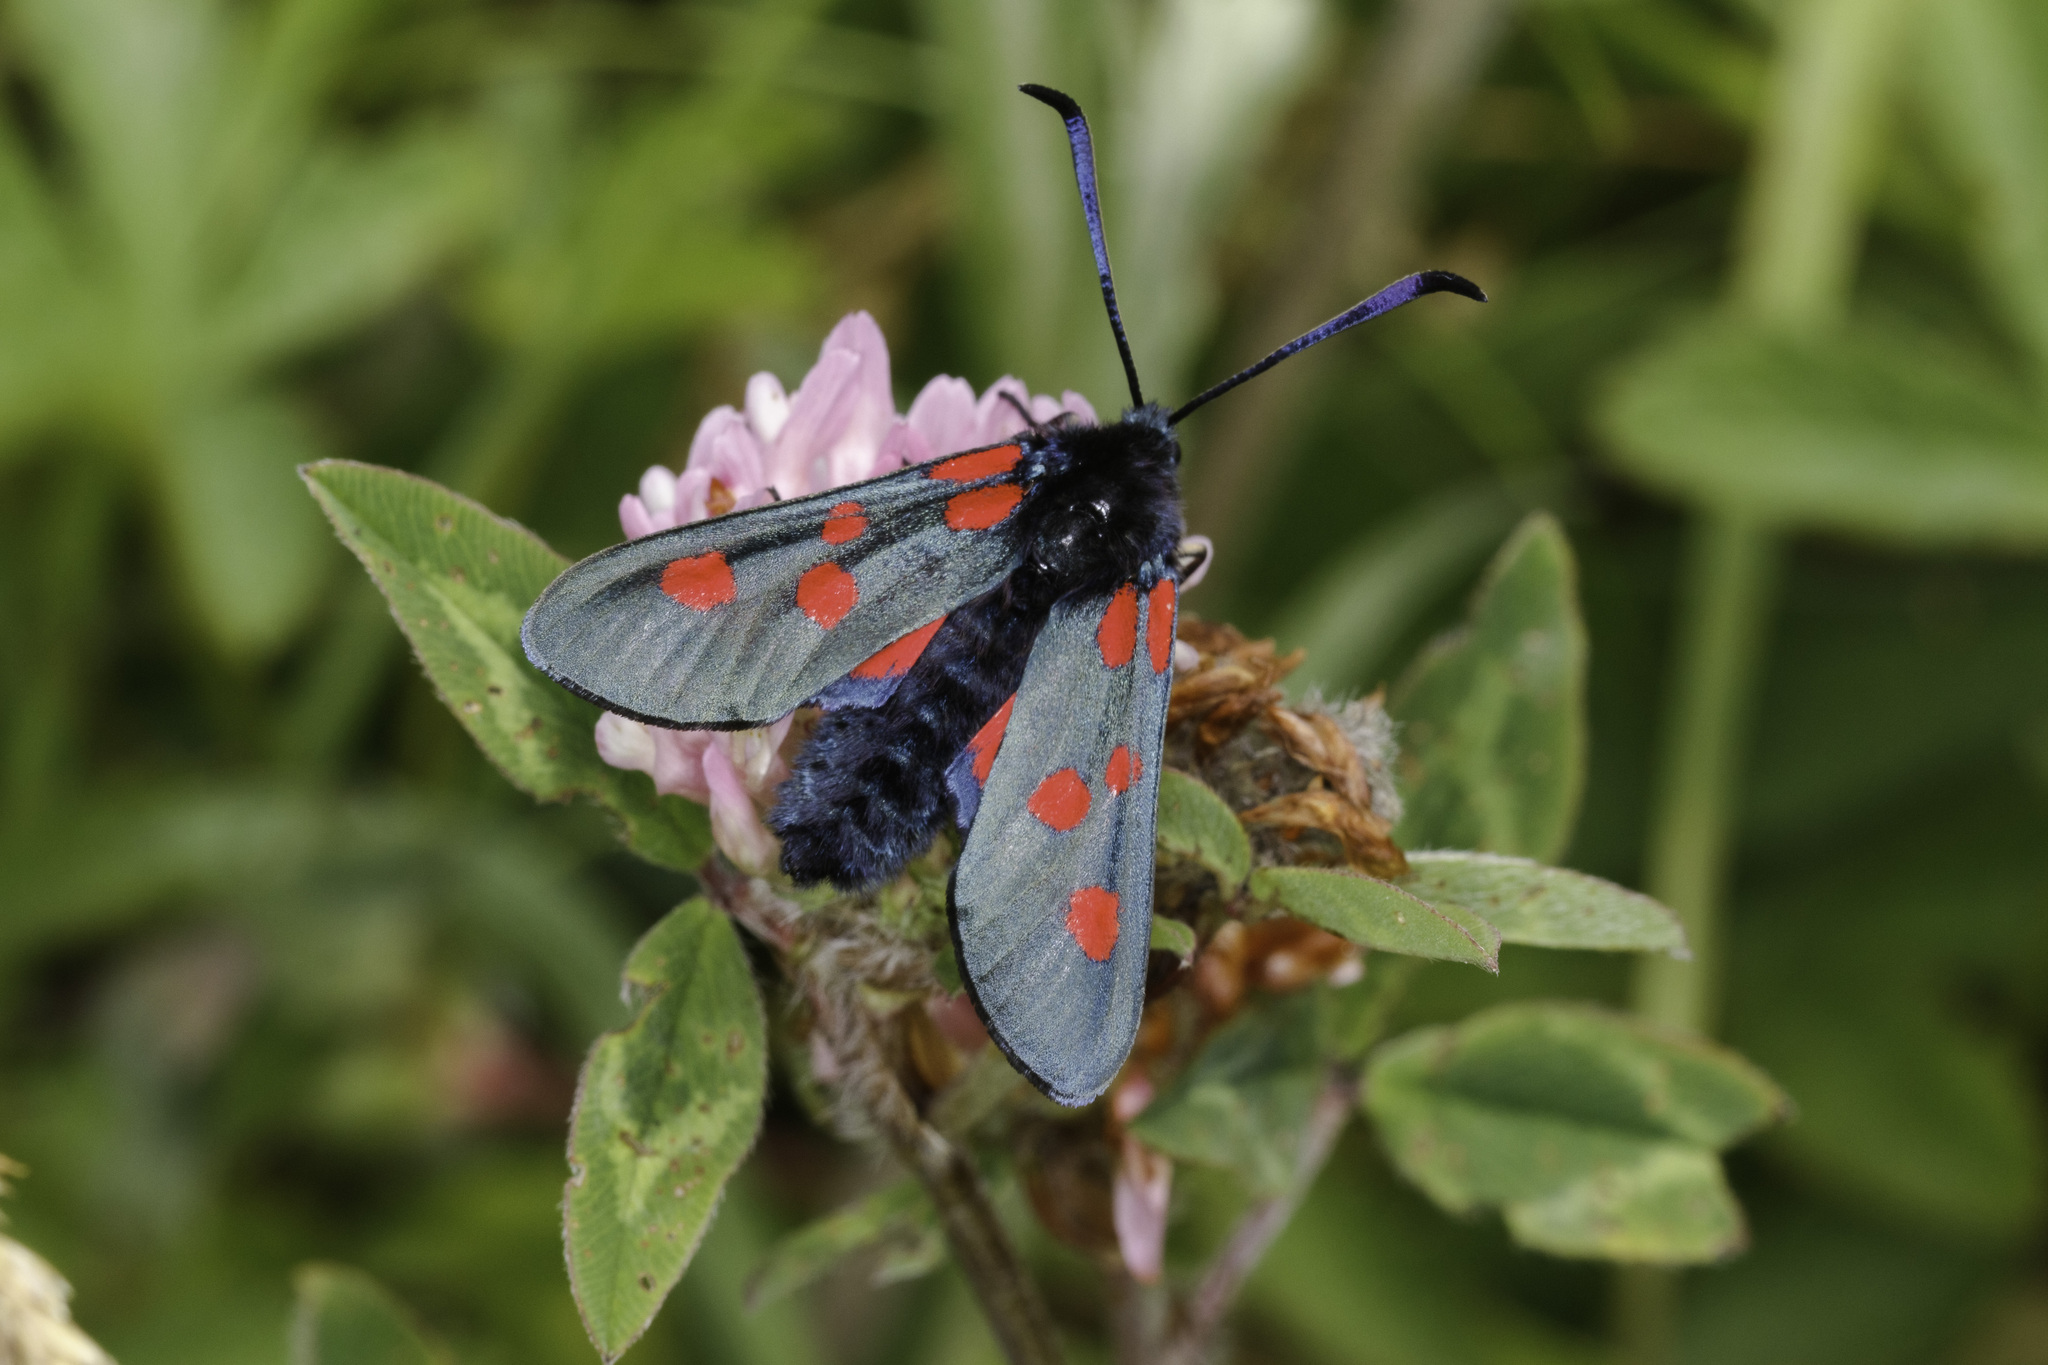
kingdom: Animalia
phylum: Arthropoda
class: Insecta
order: Lepidoptera
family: Zygaenidae
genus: Zygaena
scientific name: Zygaena lonicerae
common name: Narrow-bordered five-spot burnet
